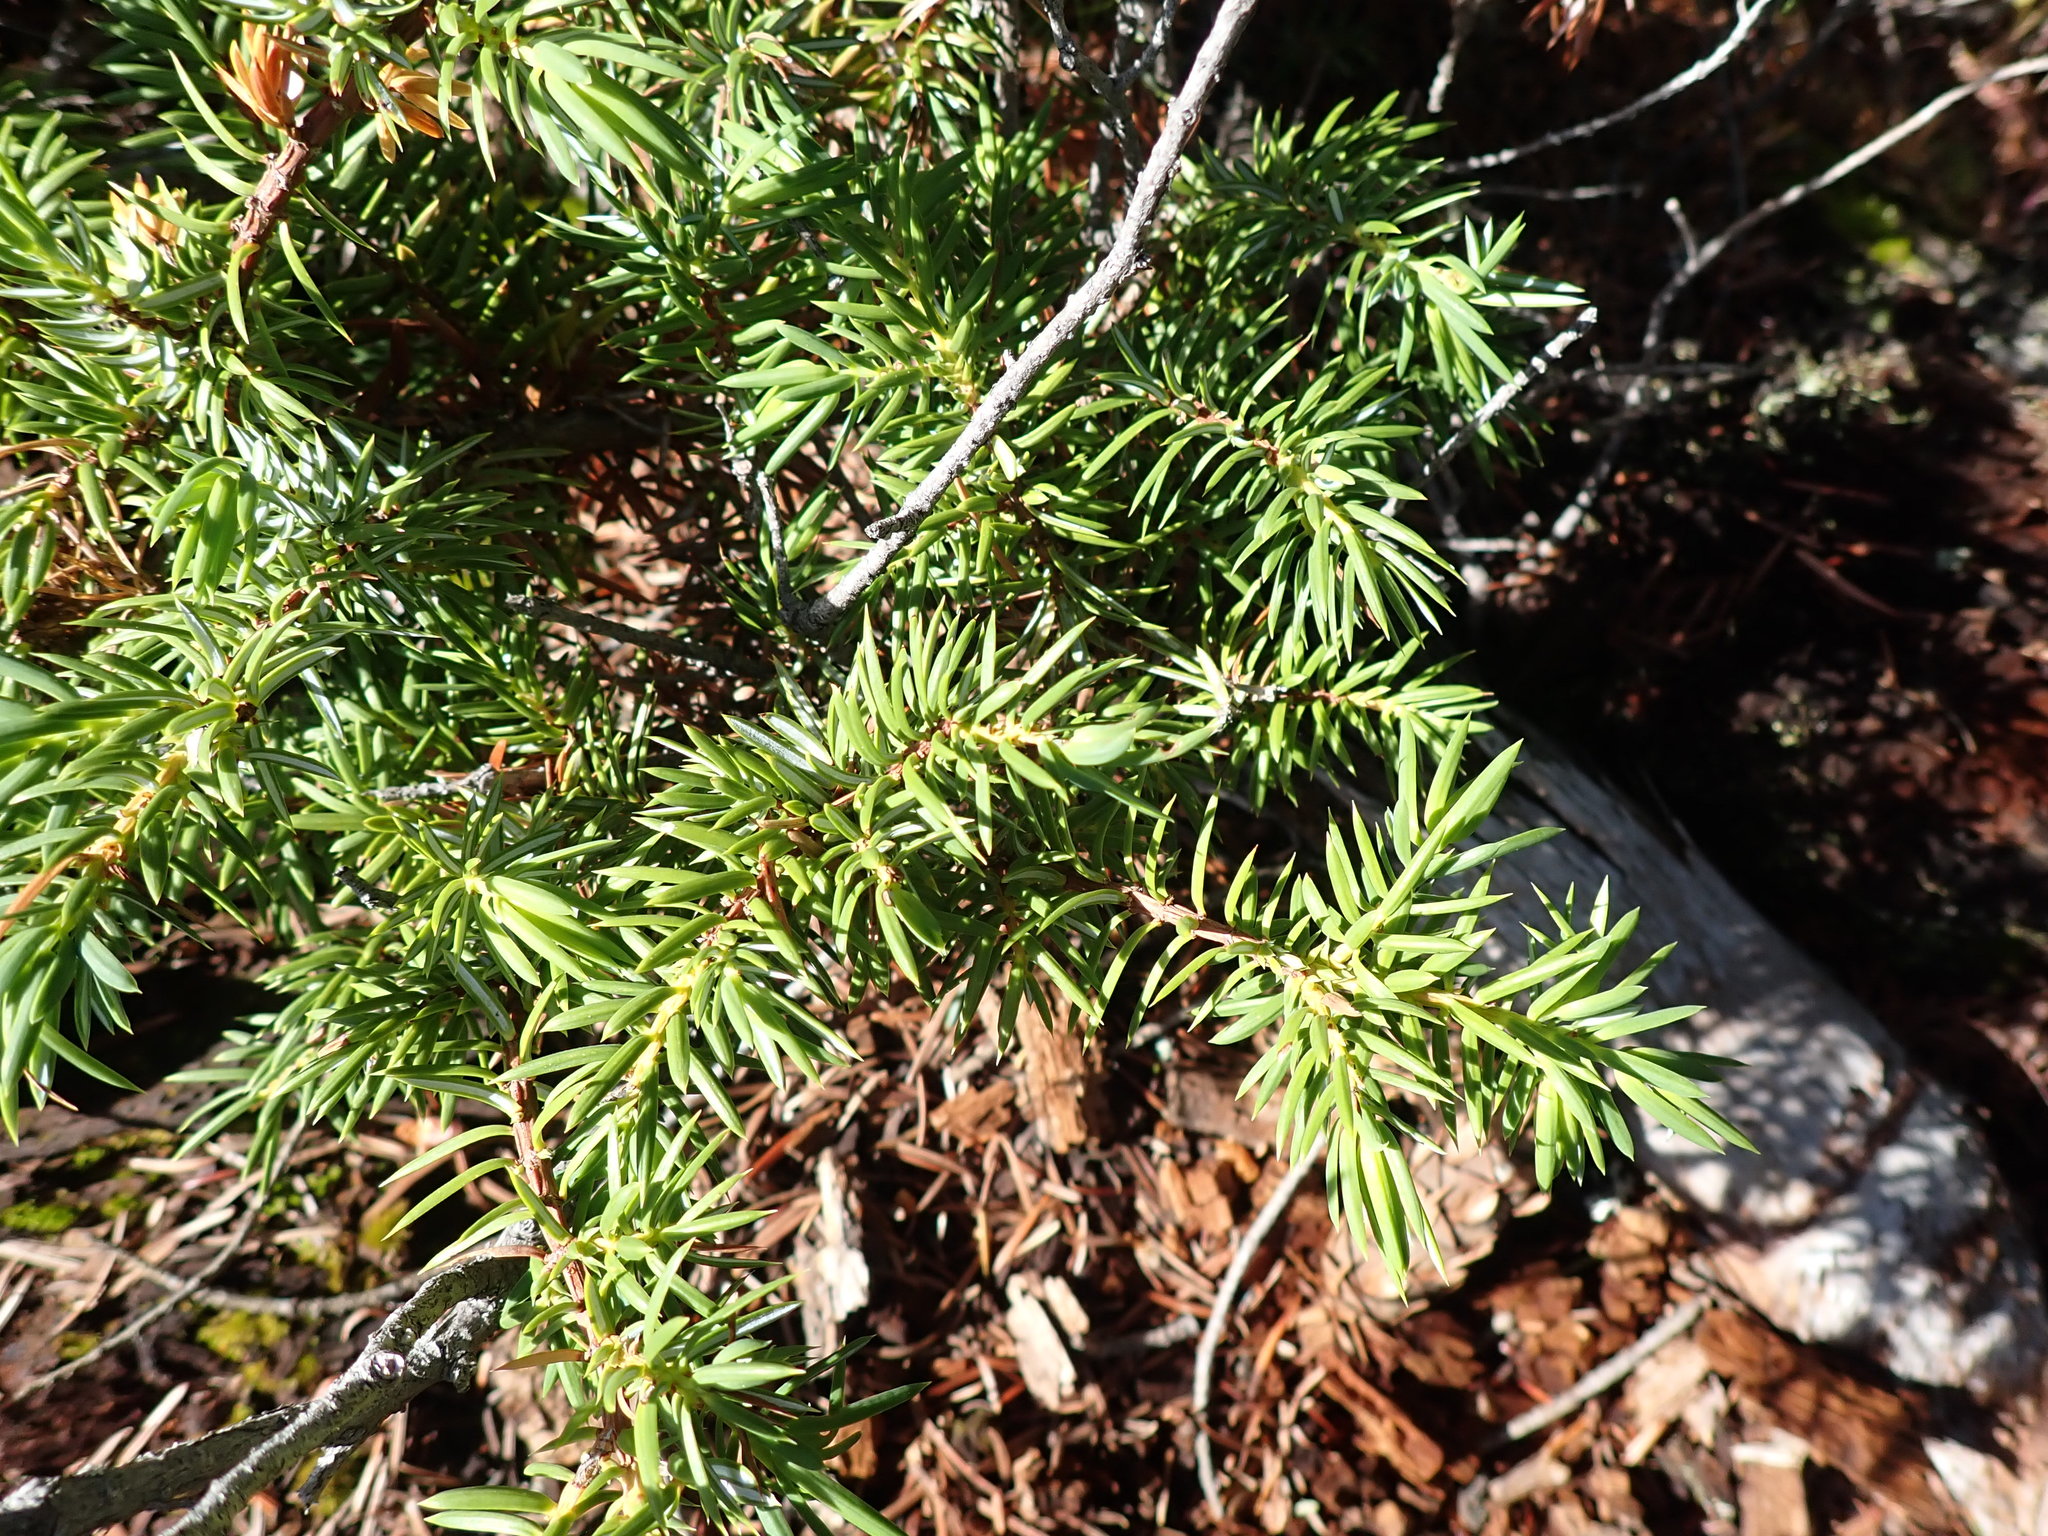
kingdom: Plantae
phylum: Tracheophyta
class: Pinopsida
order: Pinales
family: Cupressaceae
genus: Juniperus
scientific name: Juniperus communis
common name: Common juniper
